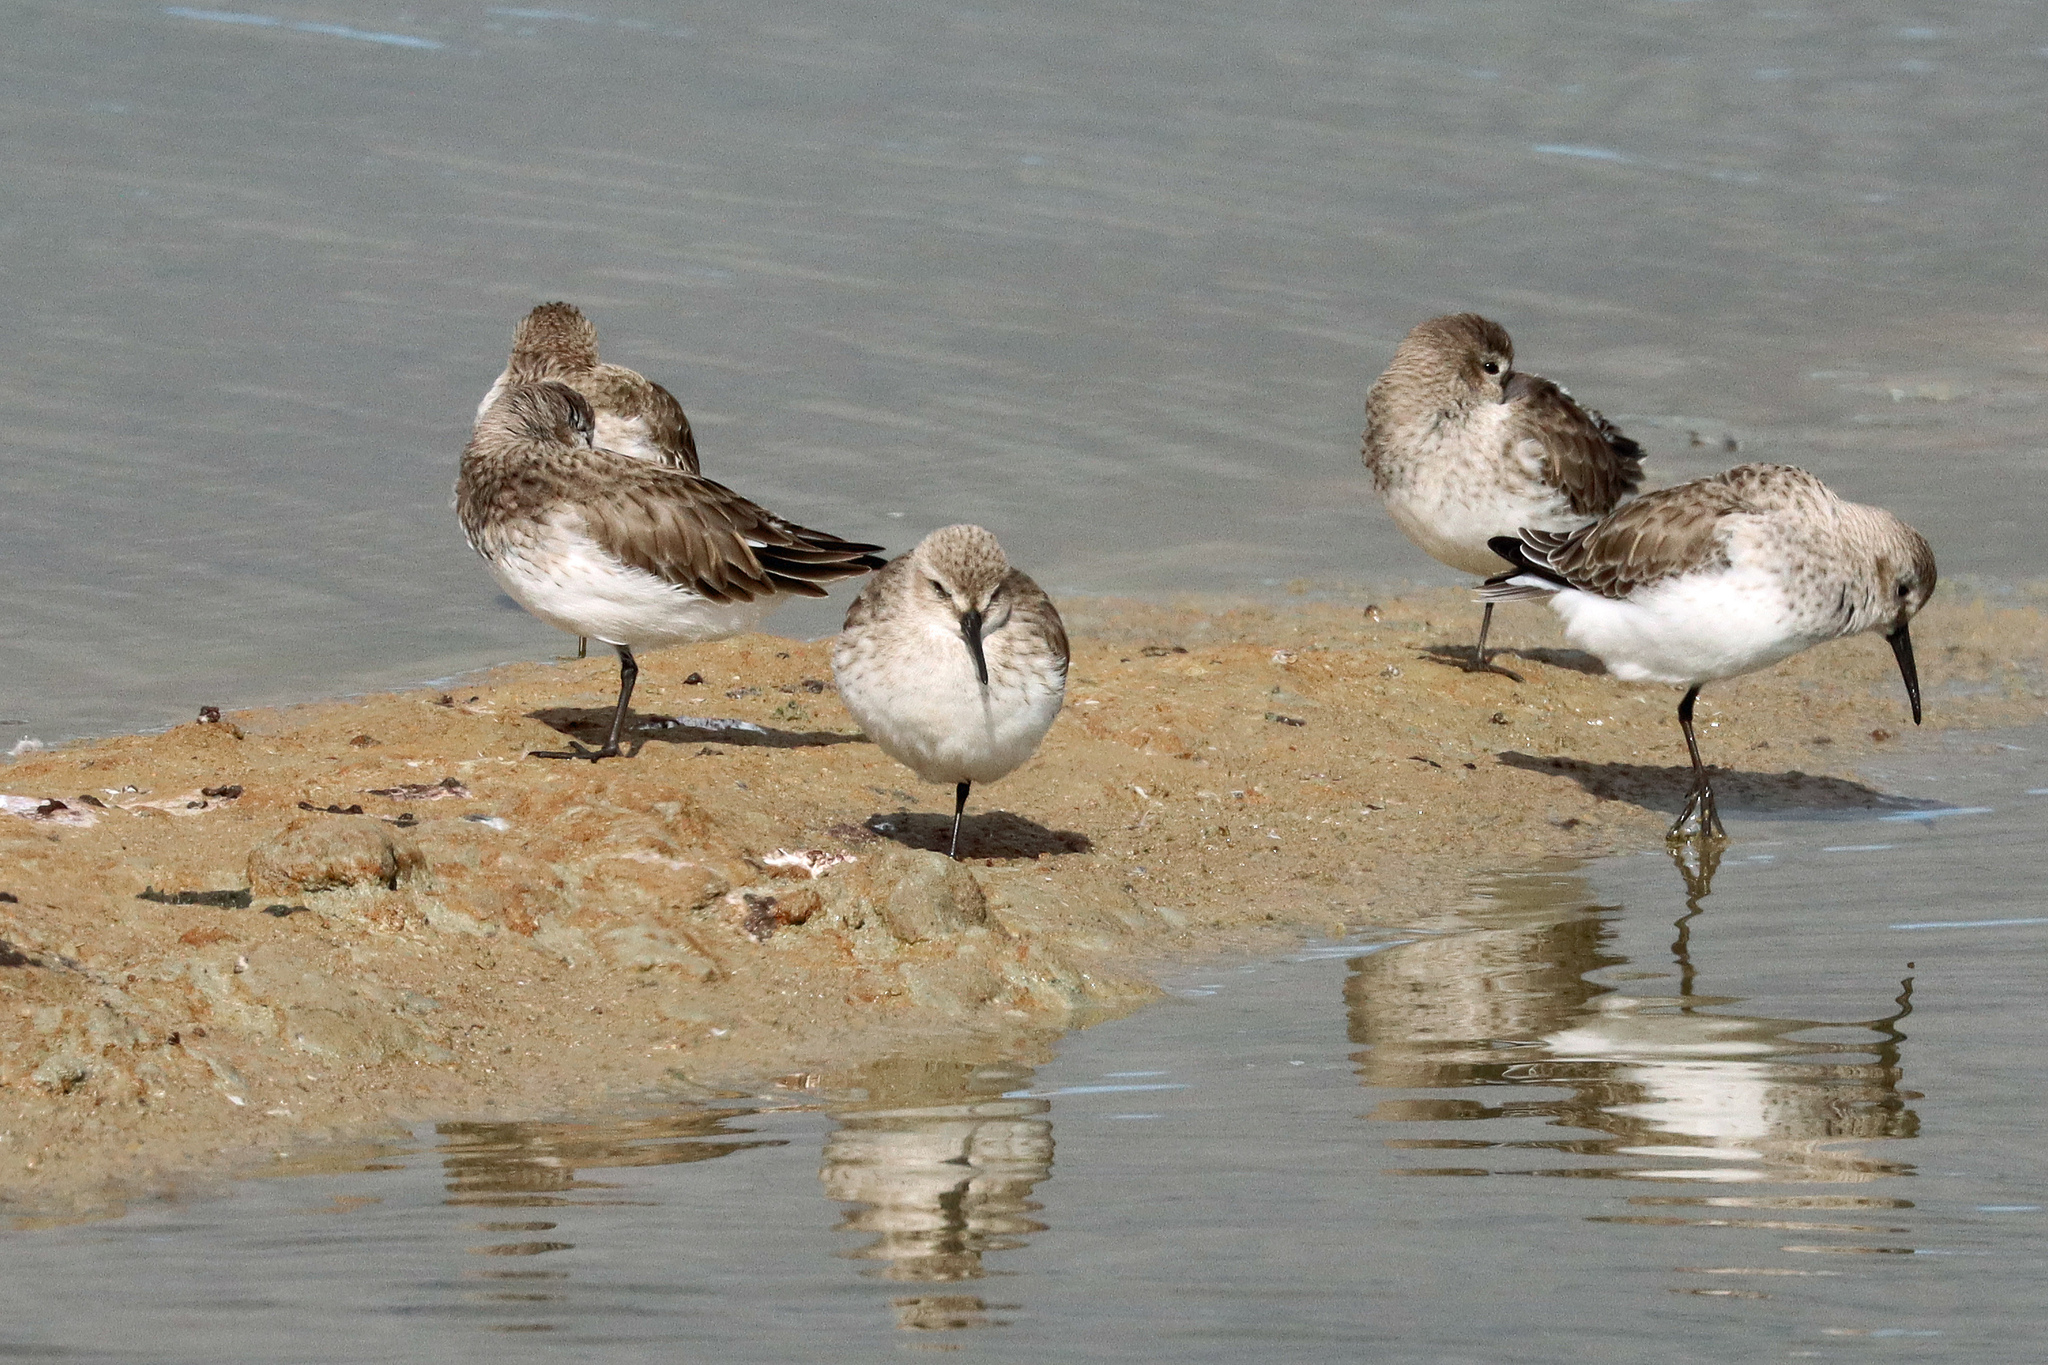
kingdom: Animalia
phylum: Chordata
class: Aves
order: Charadriiformes
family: Scolopacidae
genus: Calidris
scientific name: Calidris alpina
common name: Dunlin
